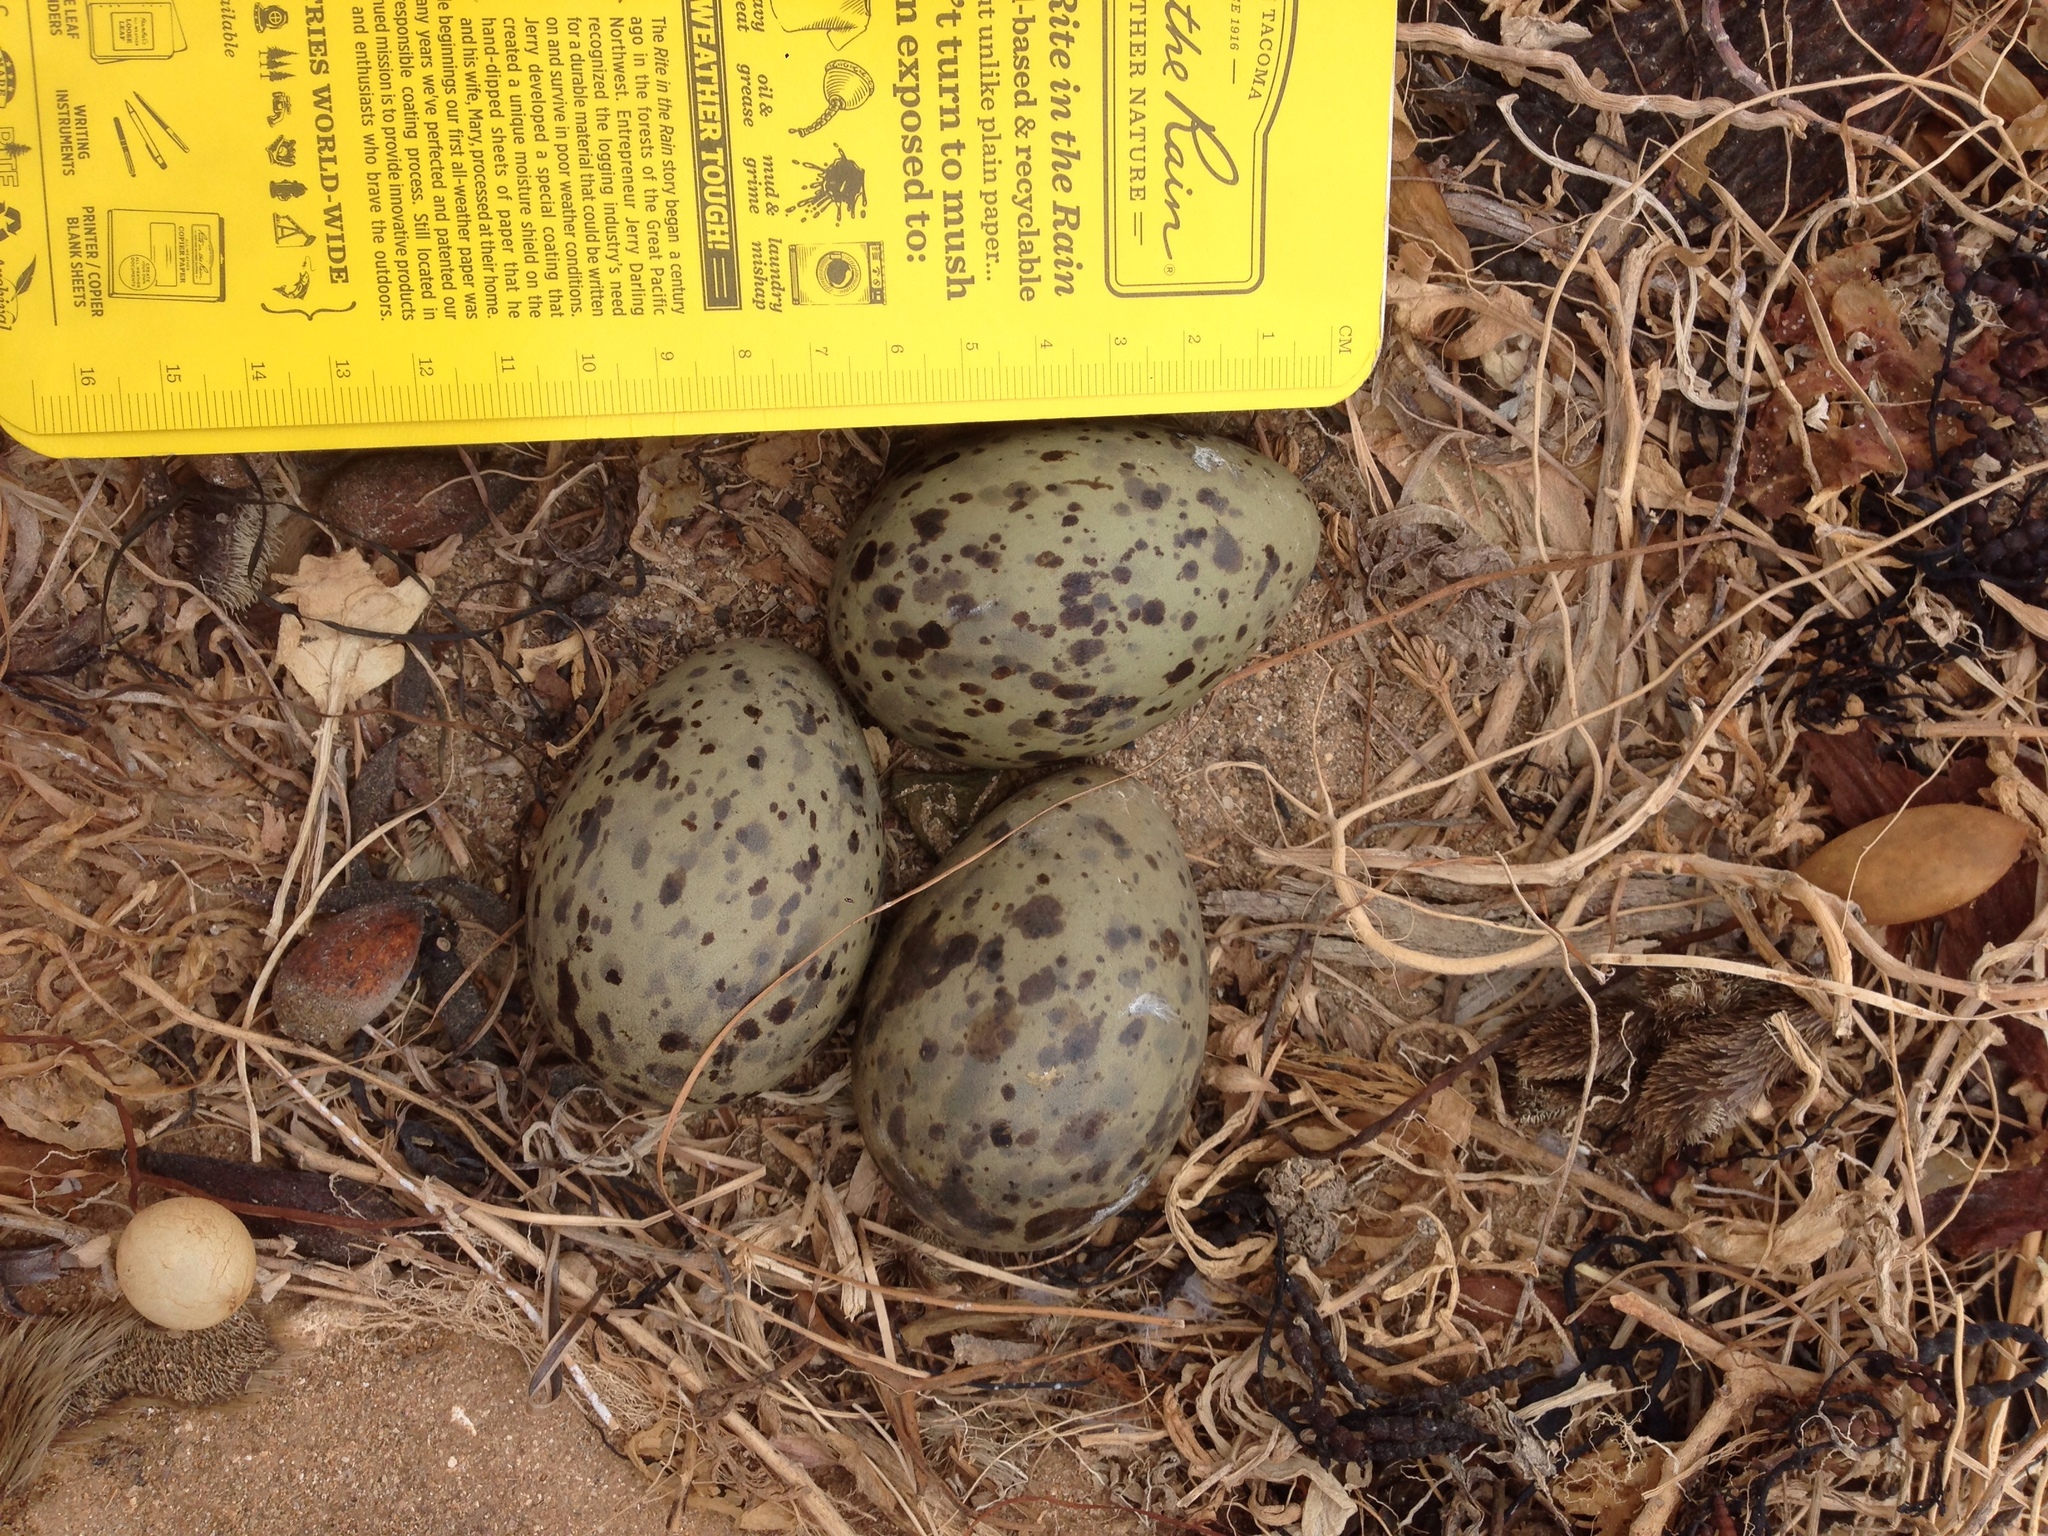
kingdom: Animalia
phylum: Chordata
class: Aves
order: Charadriiformes
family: Laridae
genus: Larus
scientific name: Larus occidentalis
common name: Western gull
